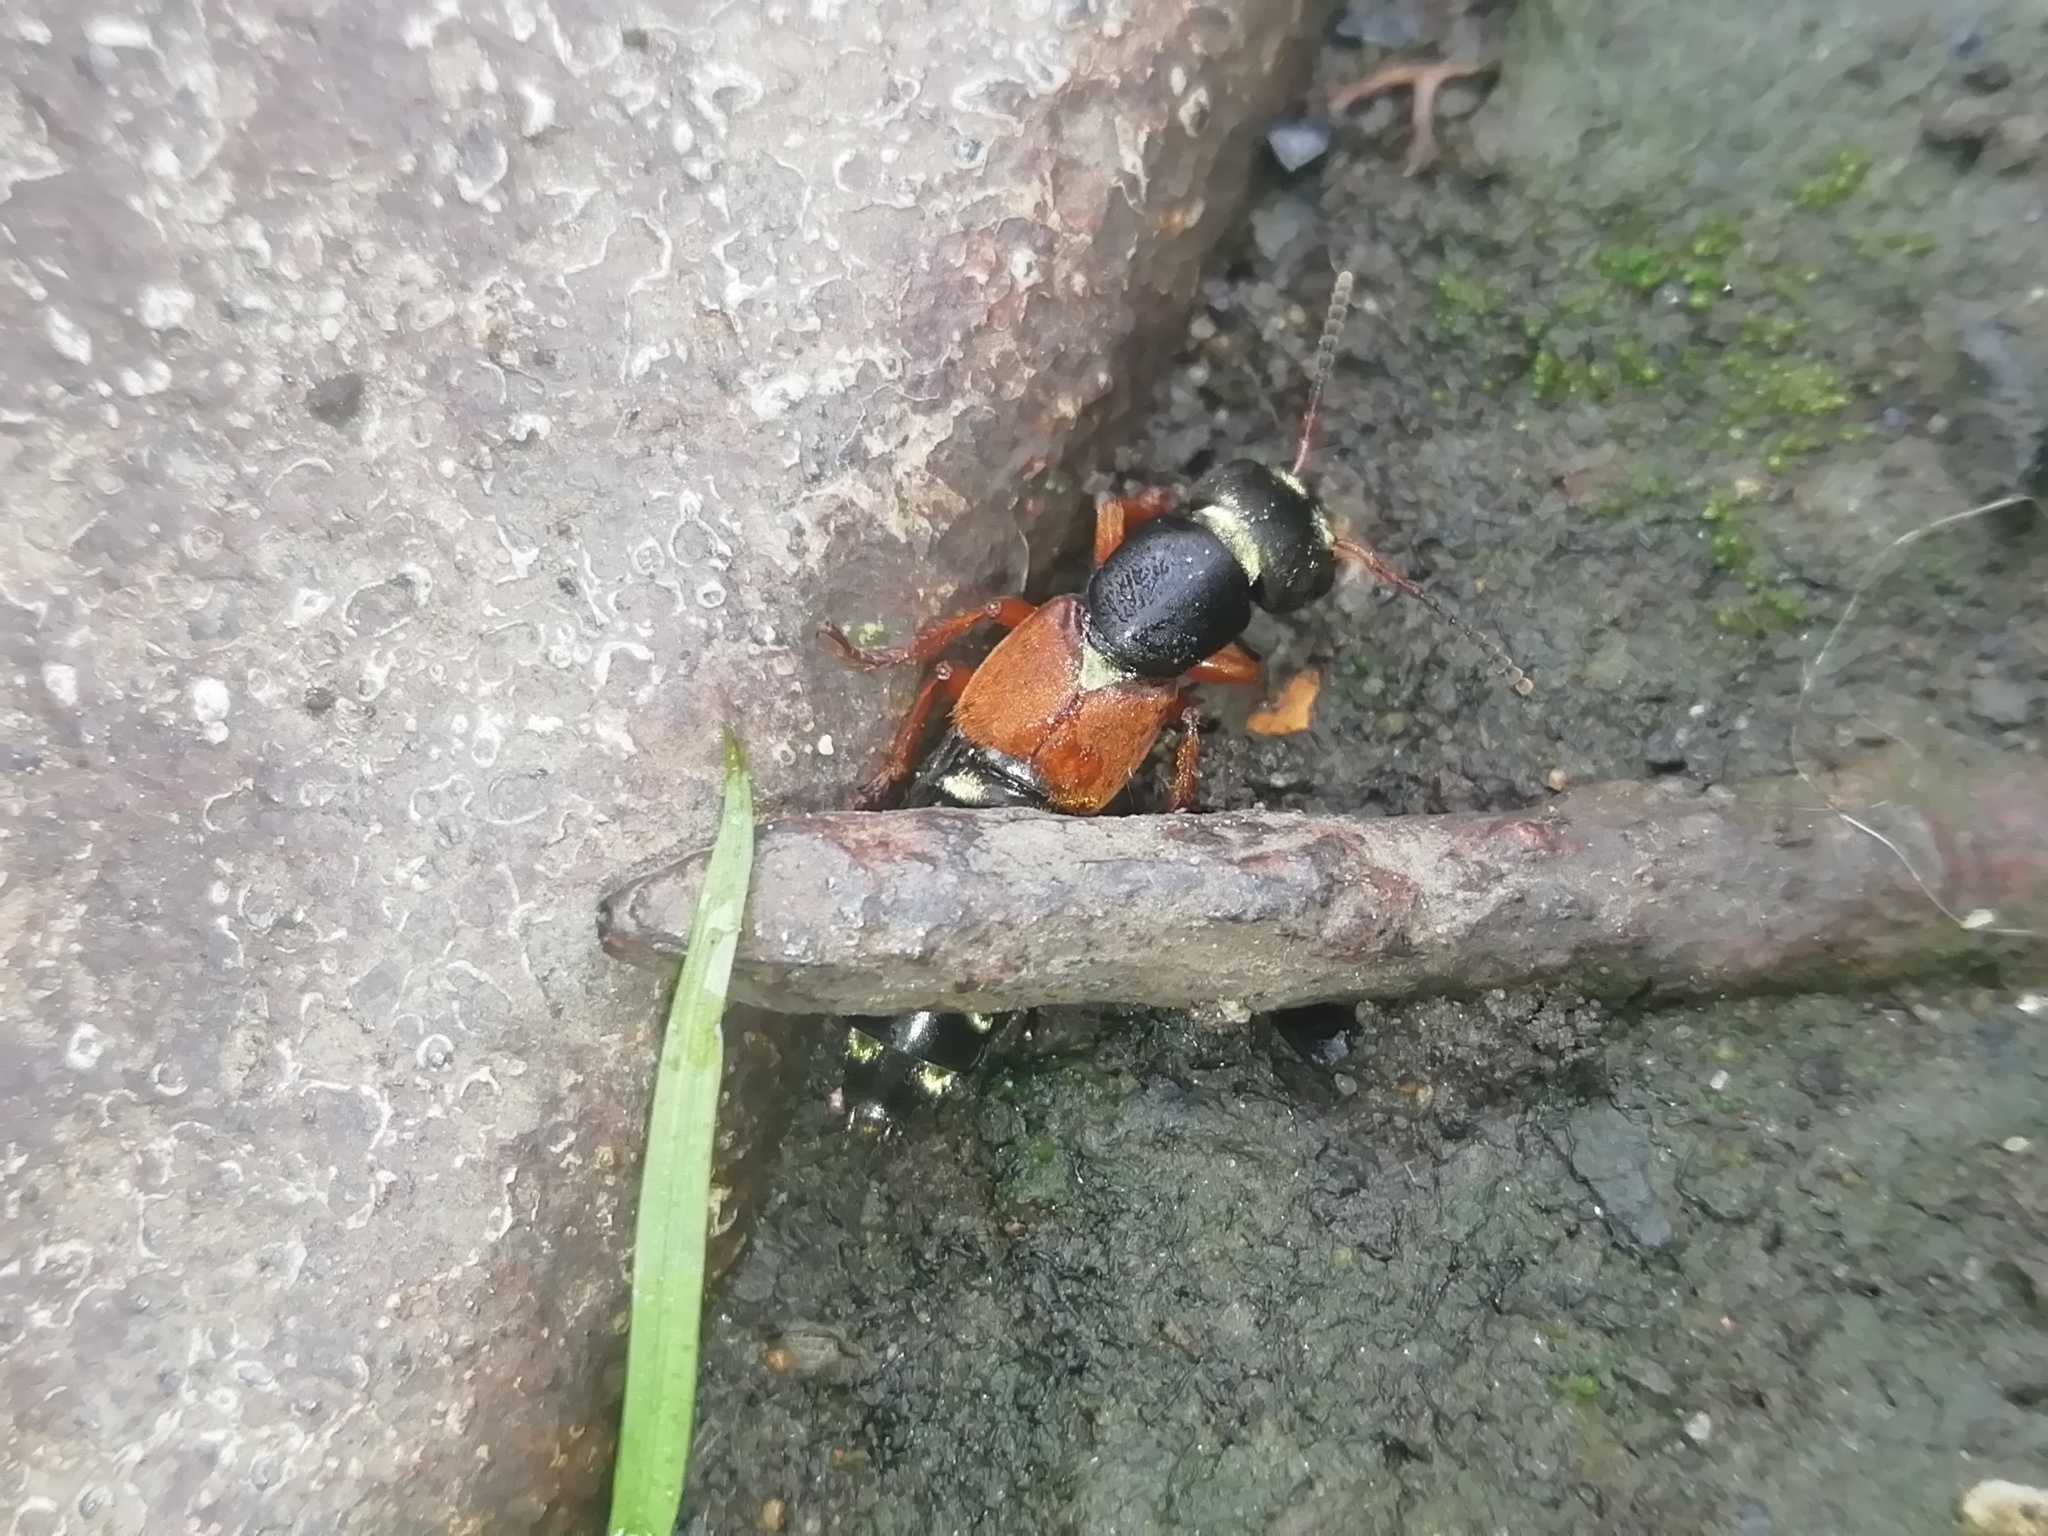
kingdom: Animalia
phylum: Arthropoda
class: Insecta
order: Coleoptera
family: Staphylinidae
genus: Staphylinus
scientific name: Staphylinus erythropterus
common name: Staph beetle
